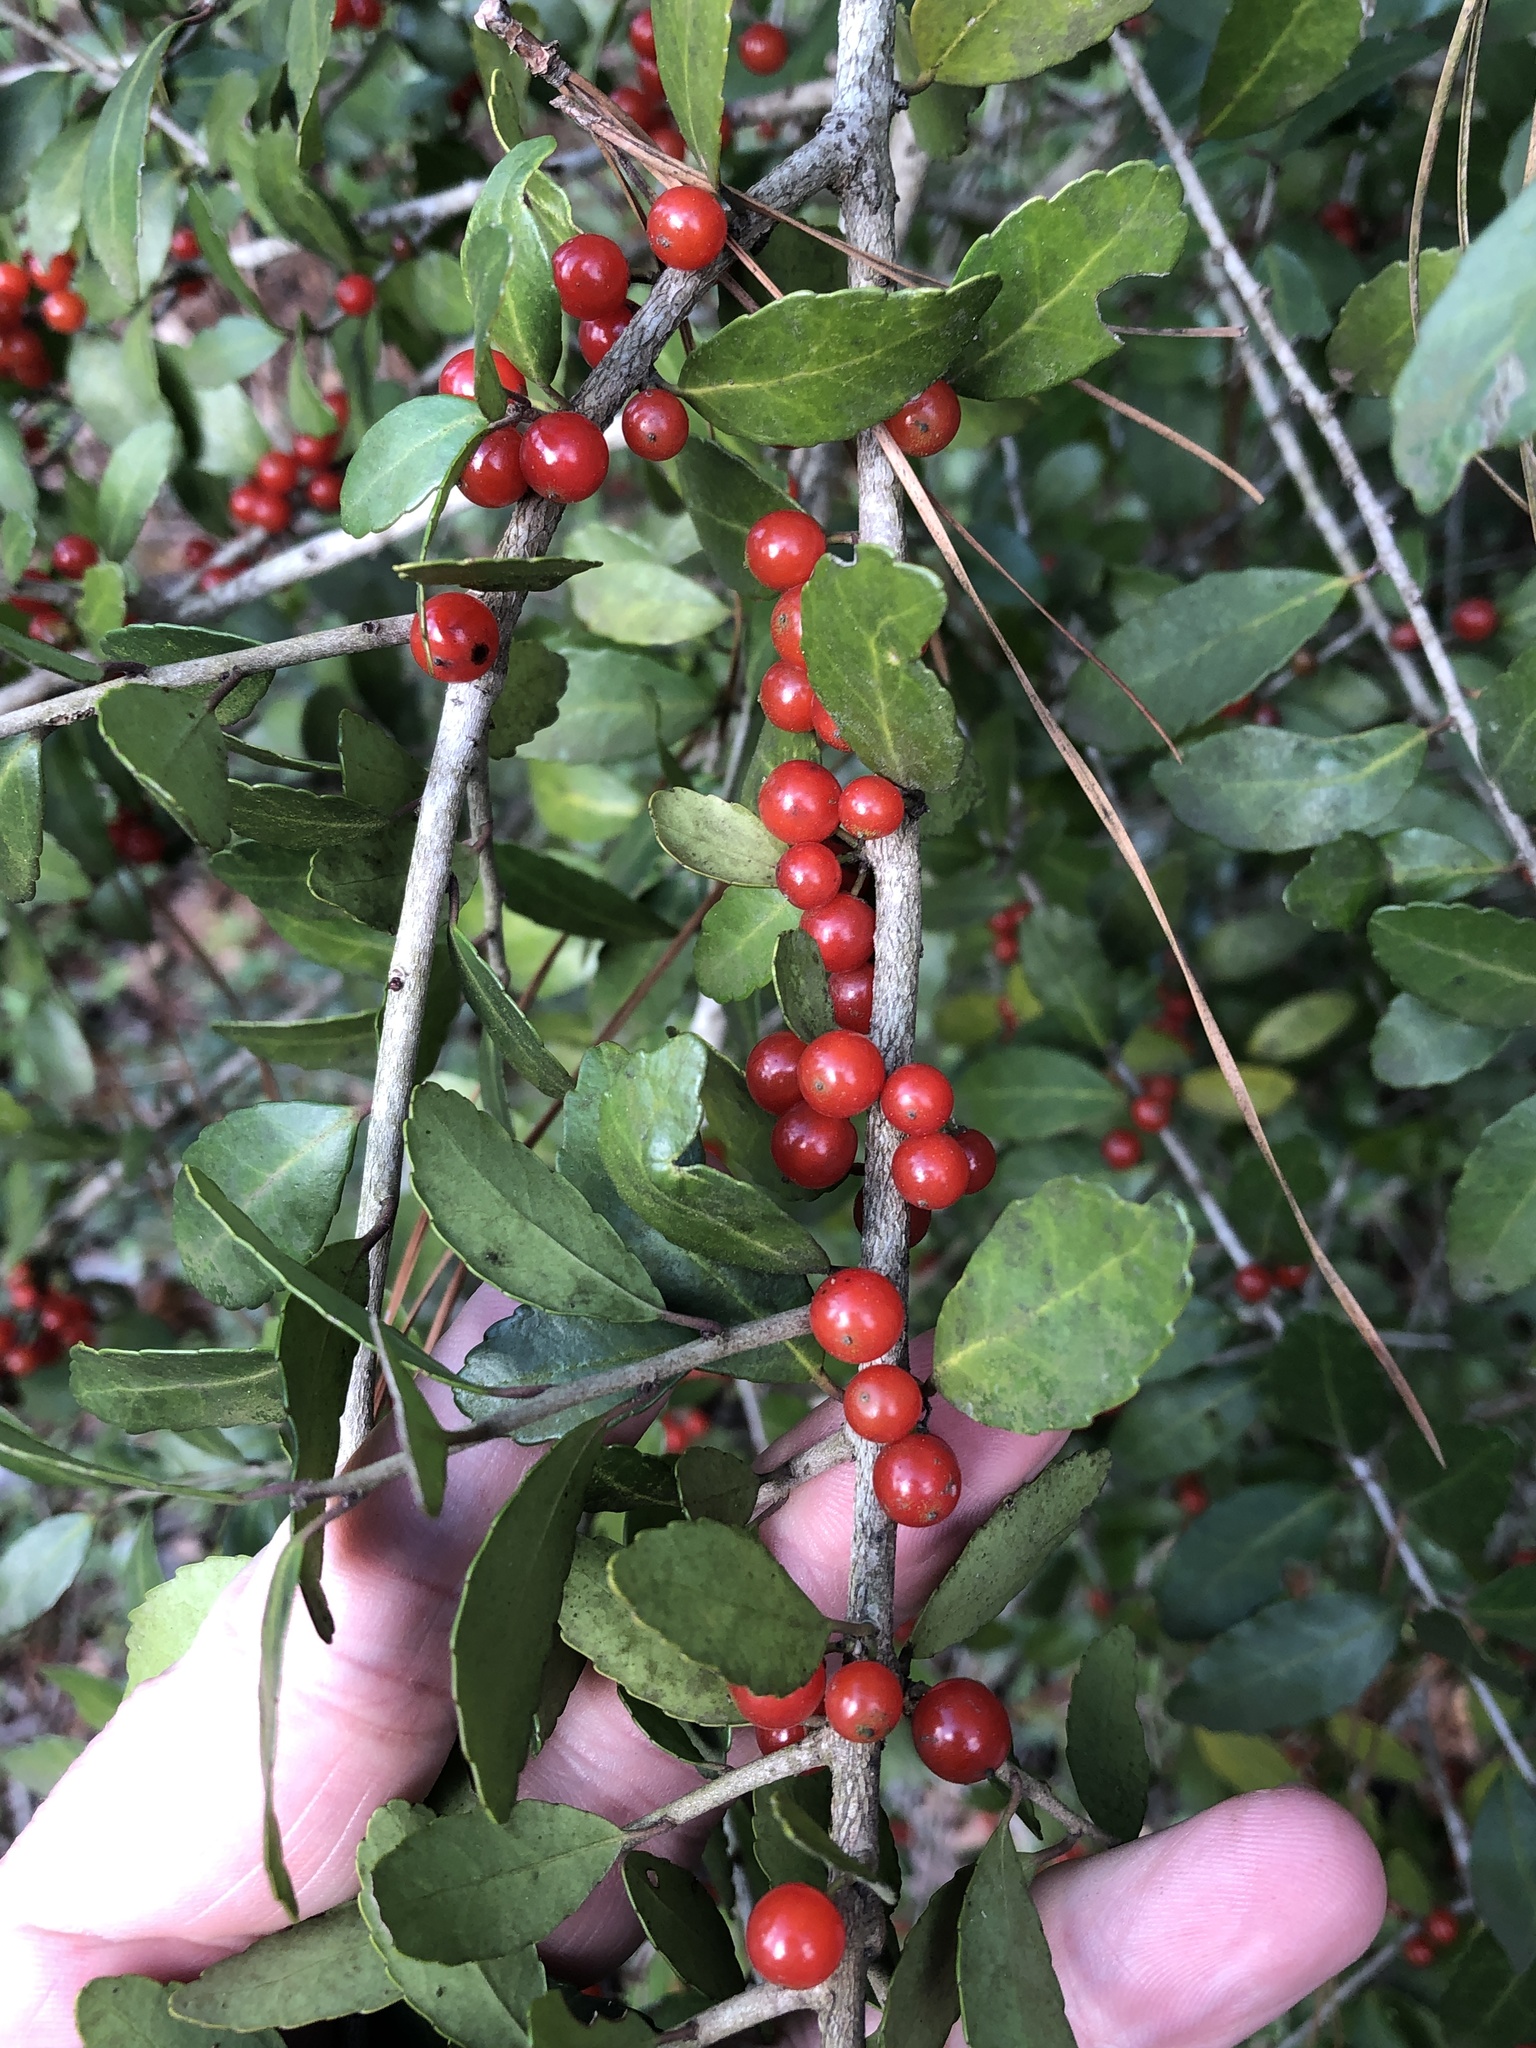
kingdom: Plantae
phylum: Tracheophyta
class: Magnoliopsida
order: Aquifoliales
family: Aquifoliaceae
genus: Ilex
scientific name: Ilex vomitoria
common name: Yaupon holly
